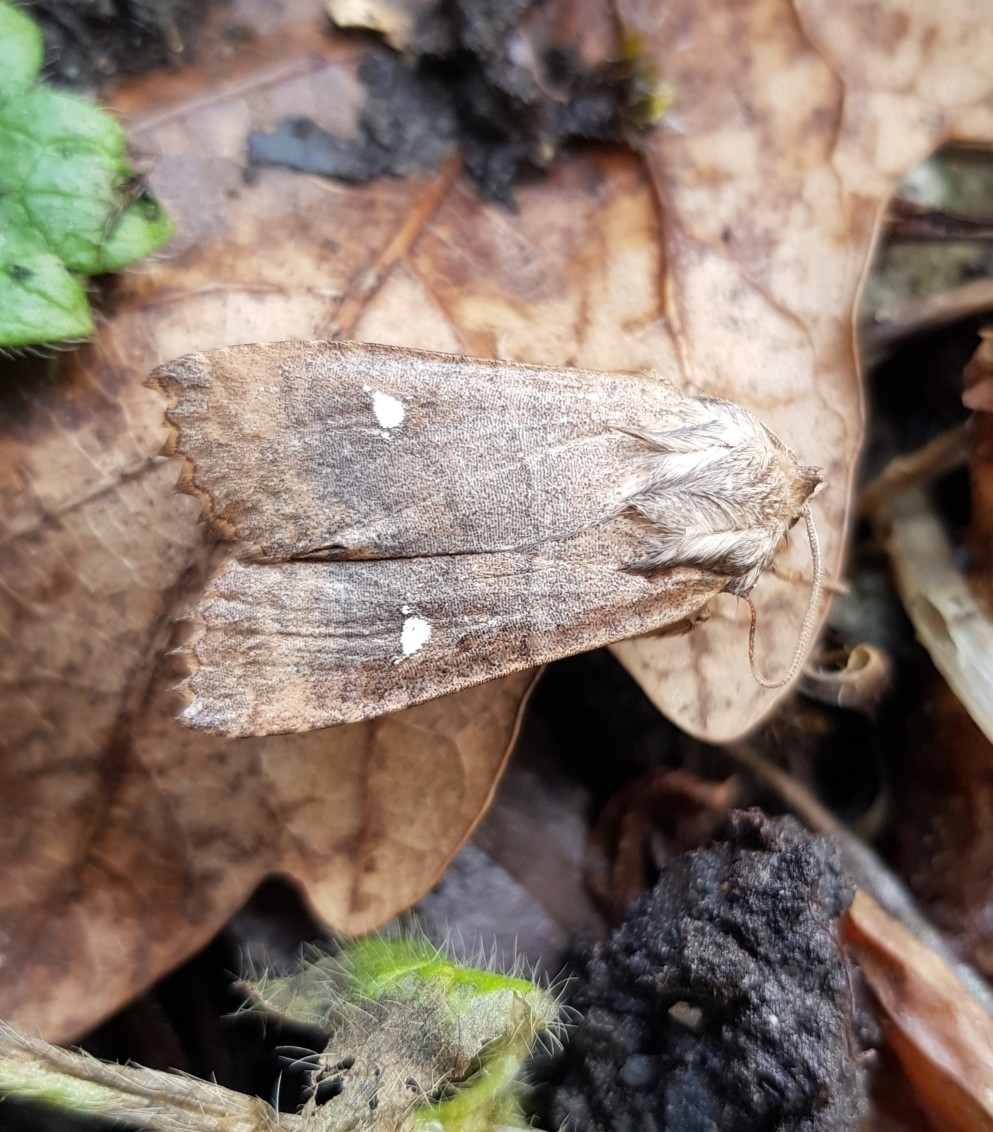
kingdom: Animalia
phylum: Arthropoda
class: Insecta
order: Lepidoptera
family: Noctuidae
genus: Eupsilia
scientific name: Eupsilia transversa
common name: Satellite
